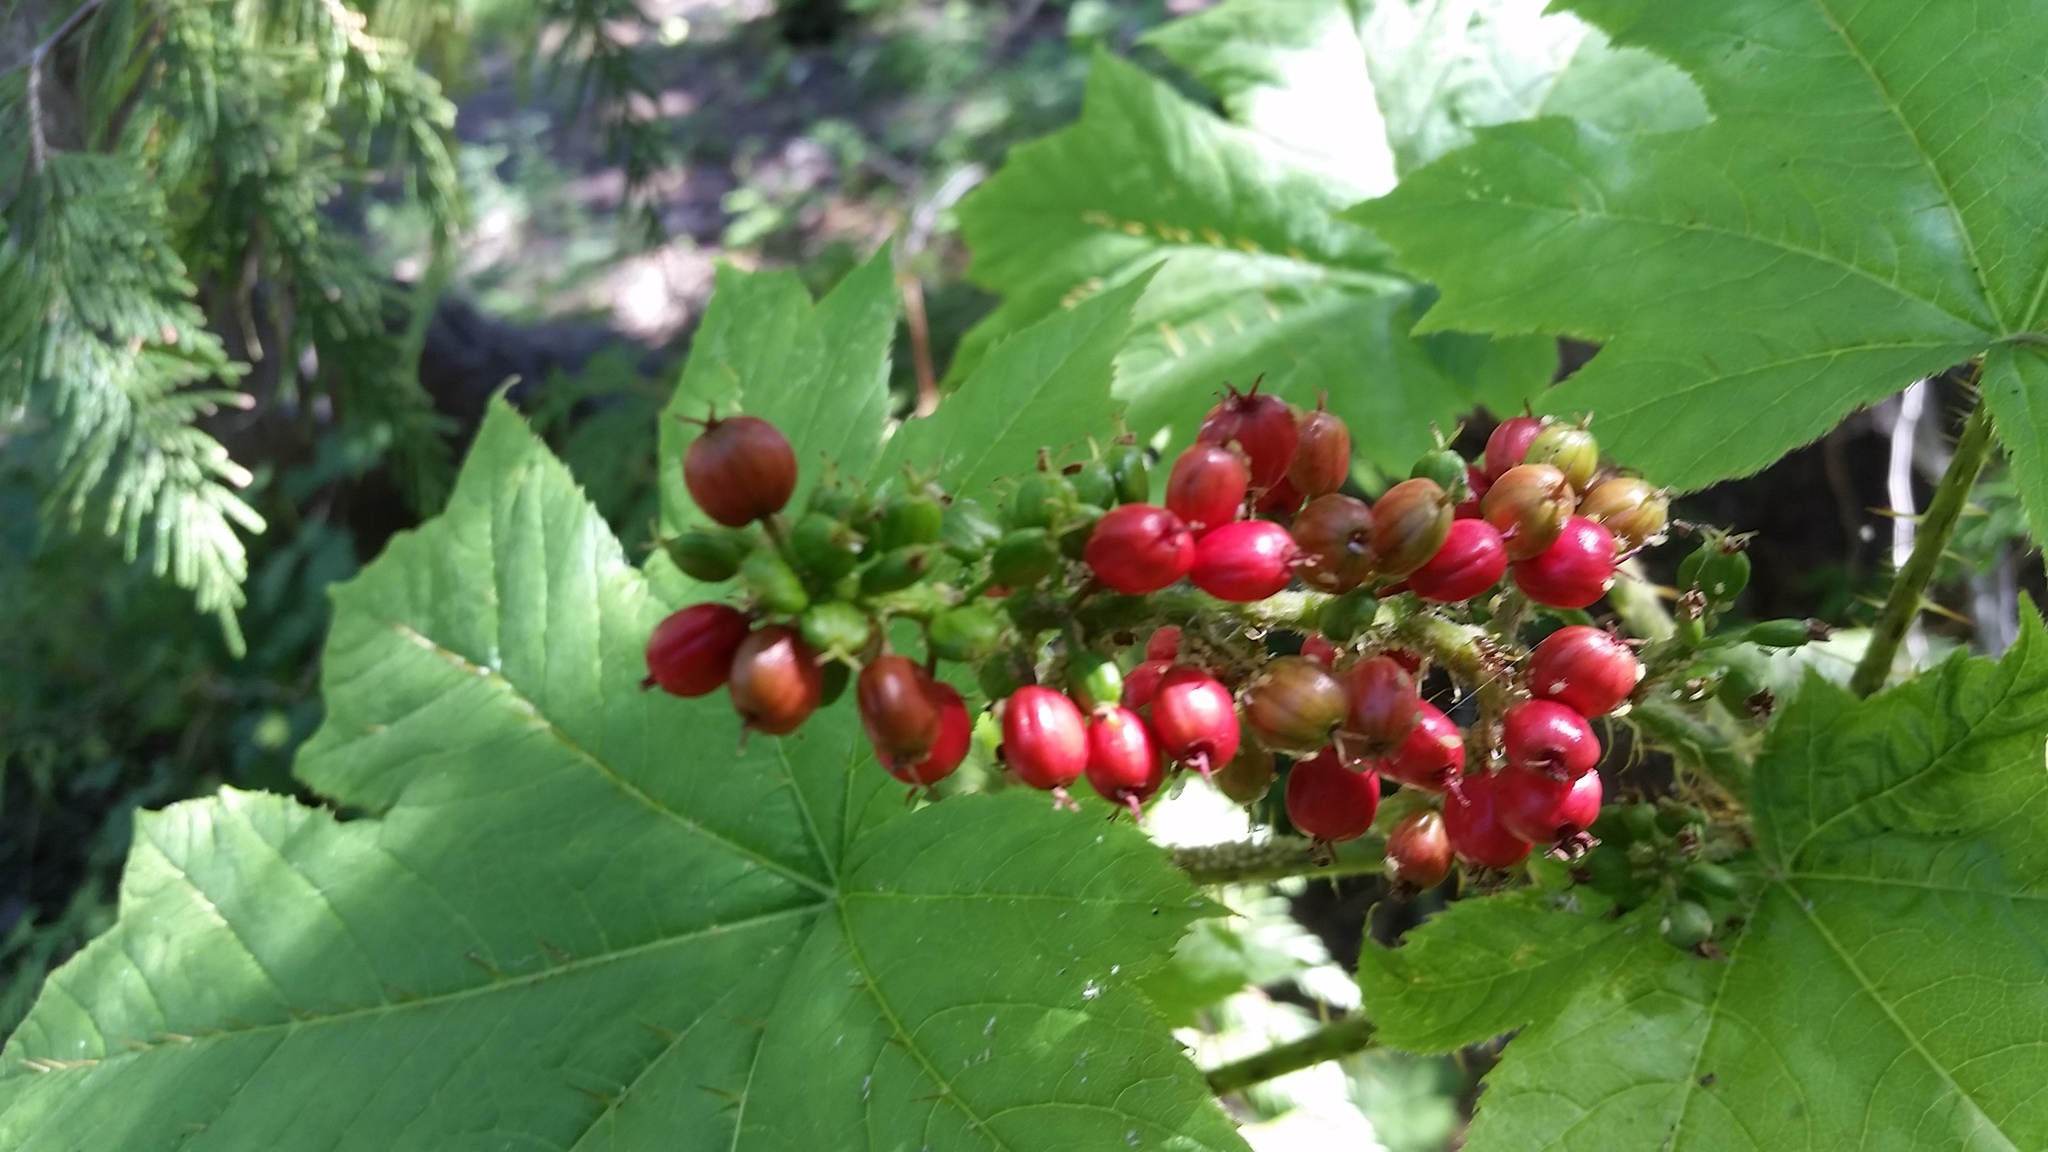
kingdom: Plantae
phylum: Tracheophyta
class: Magnoliopsida
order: Apiales
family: Araliaceae
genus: Oplopanax
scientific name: Oplopanax horridus
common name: Devil's walking-stick
